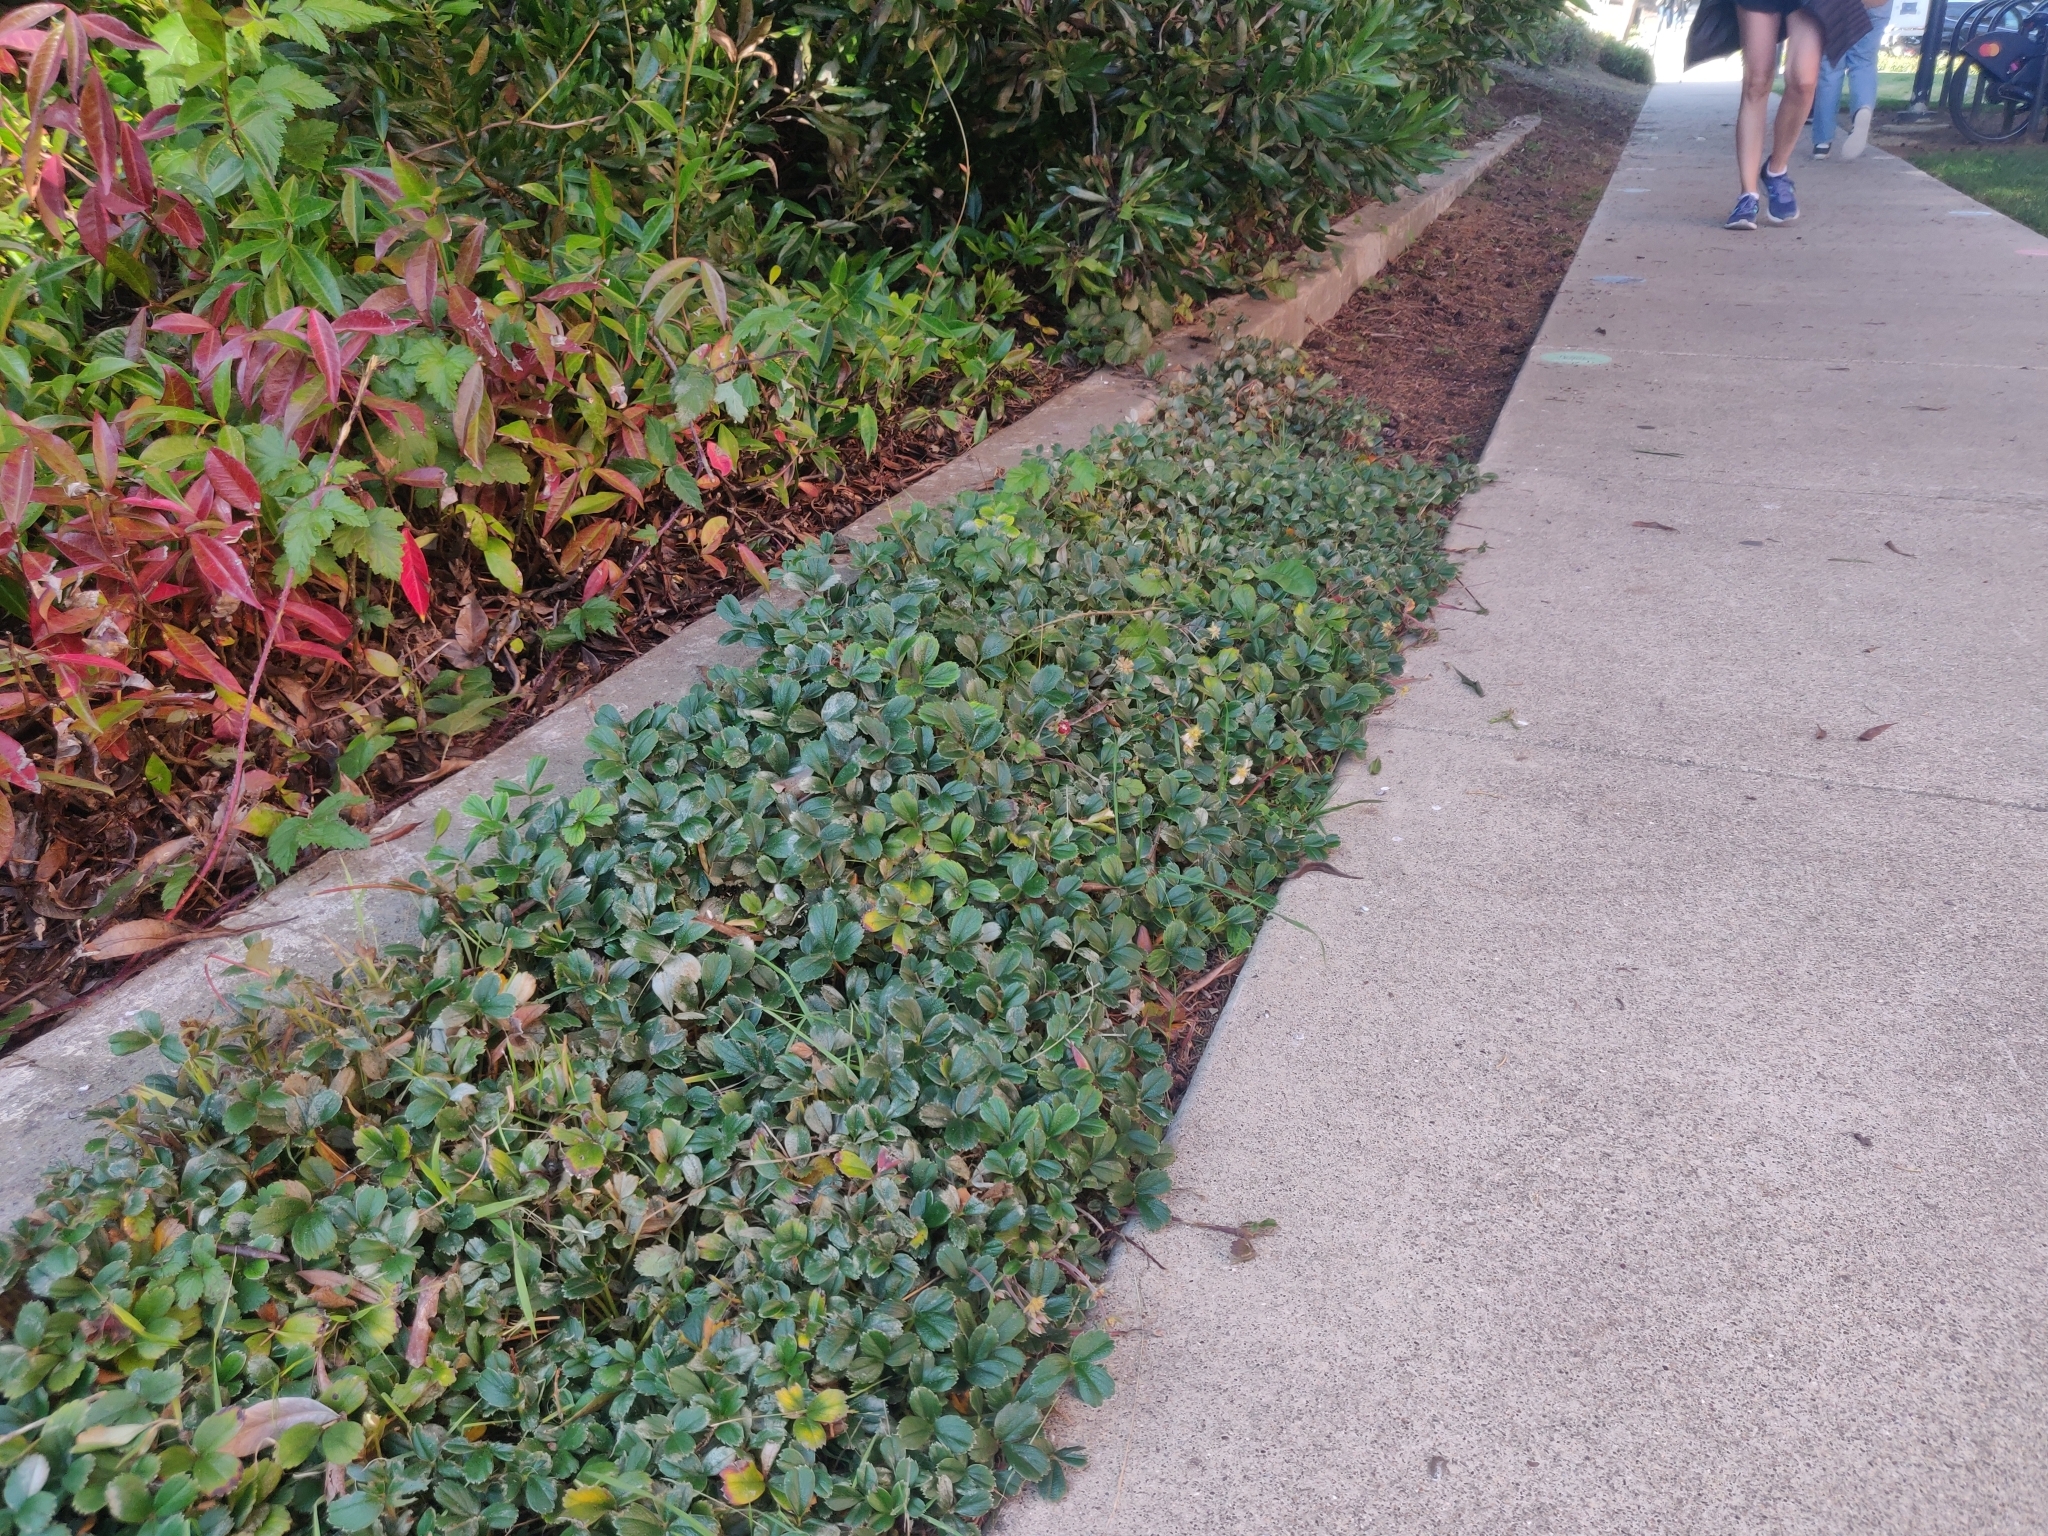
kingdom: Plantae
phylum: Tracheophyta
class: Magnoliopsida
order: Rosales
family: Rosaceae
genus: Fragaria
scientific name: Fragaria chiloensis
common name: Beach strawberry
